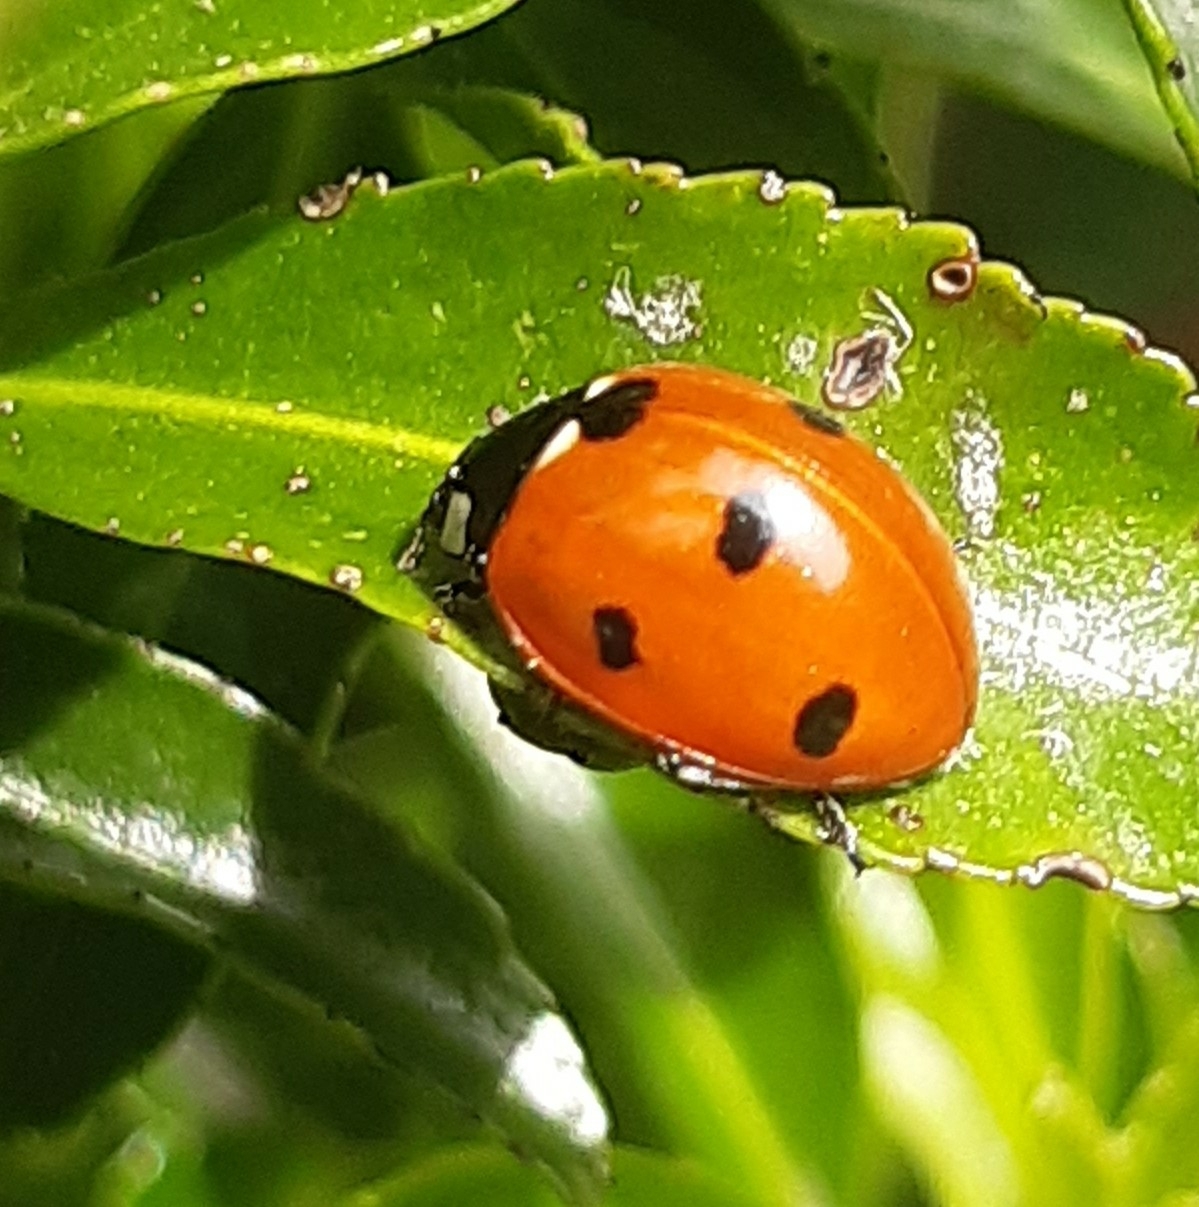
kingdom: Animalia
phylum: Arthropoda
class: Insecta
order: Coleoptera
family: Coccinellidae
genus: Coccinella
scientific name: Coccinella septempunctata
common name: Sevenspotted lady beetle
